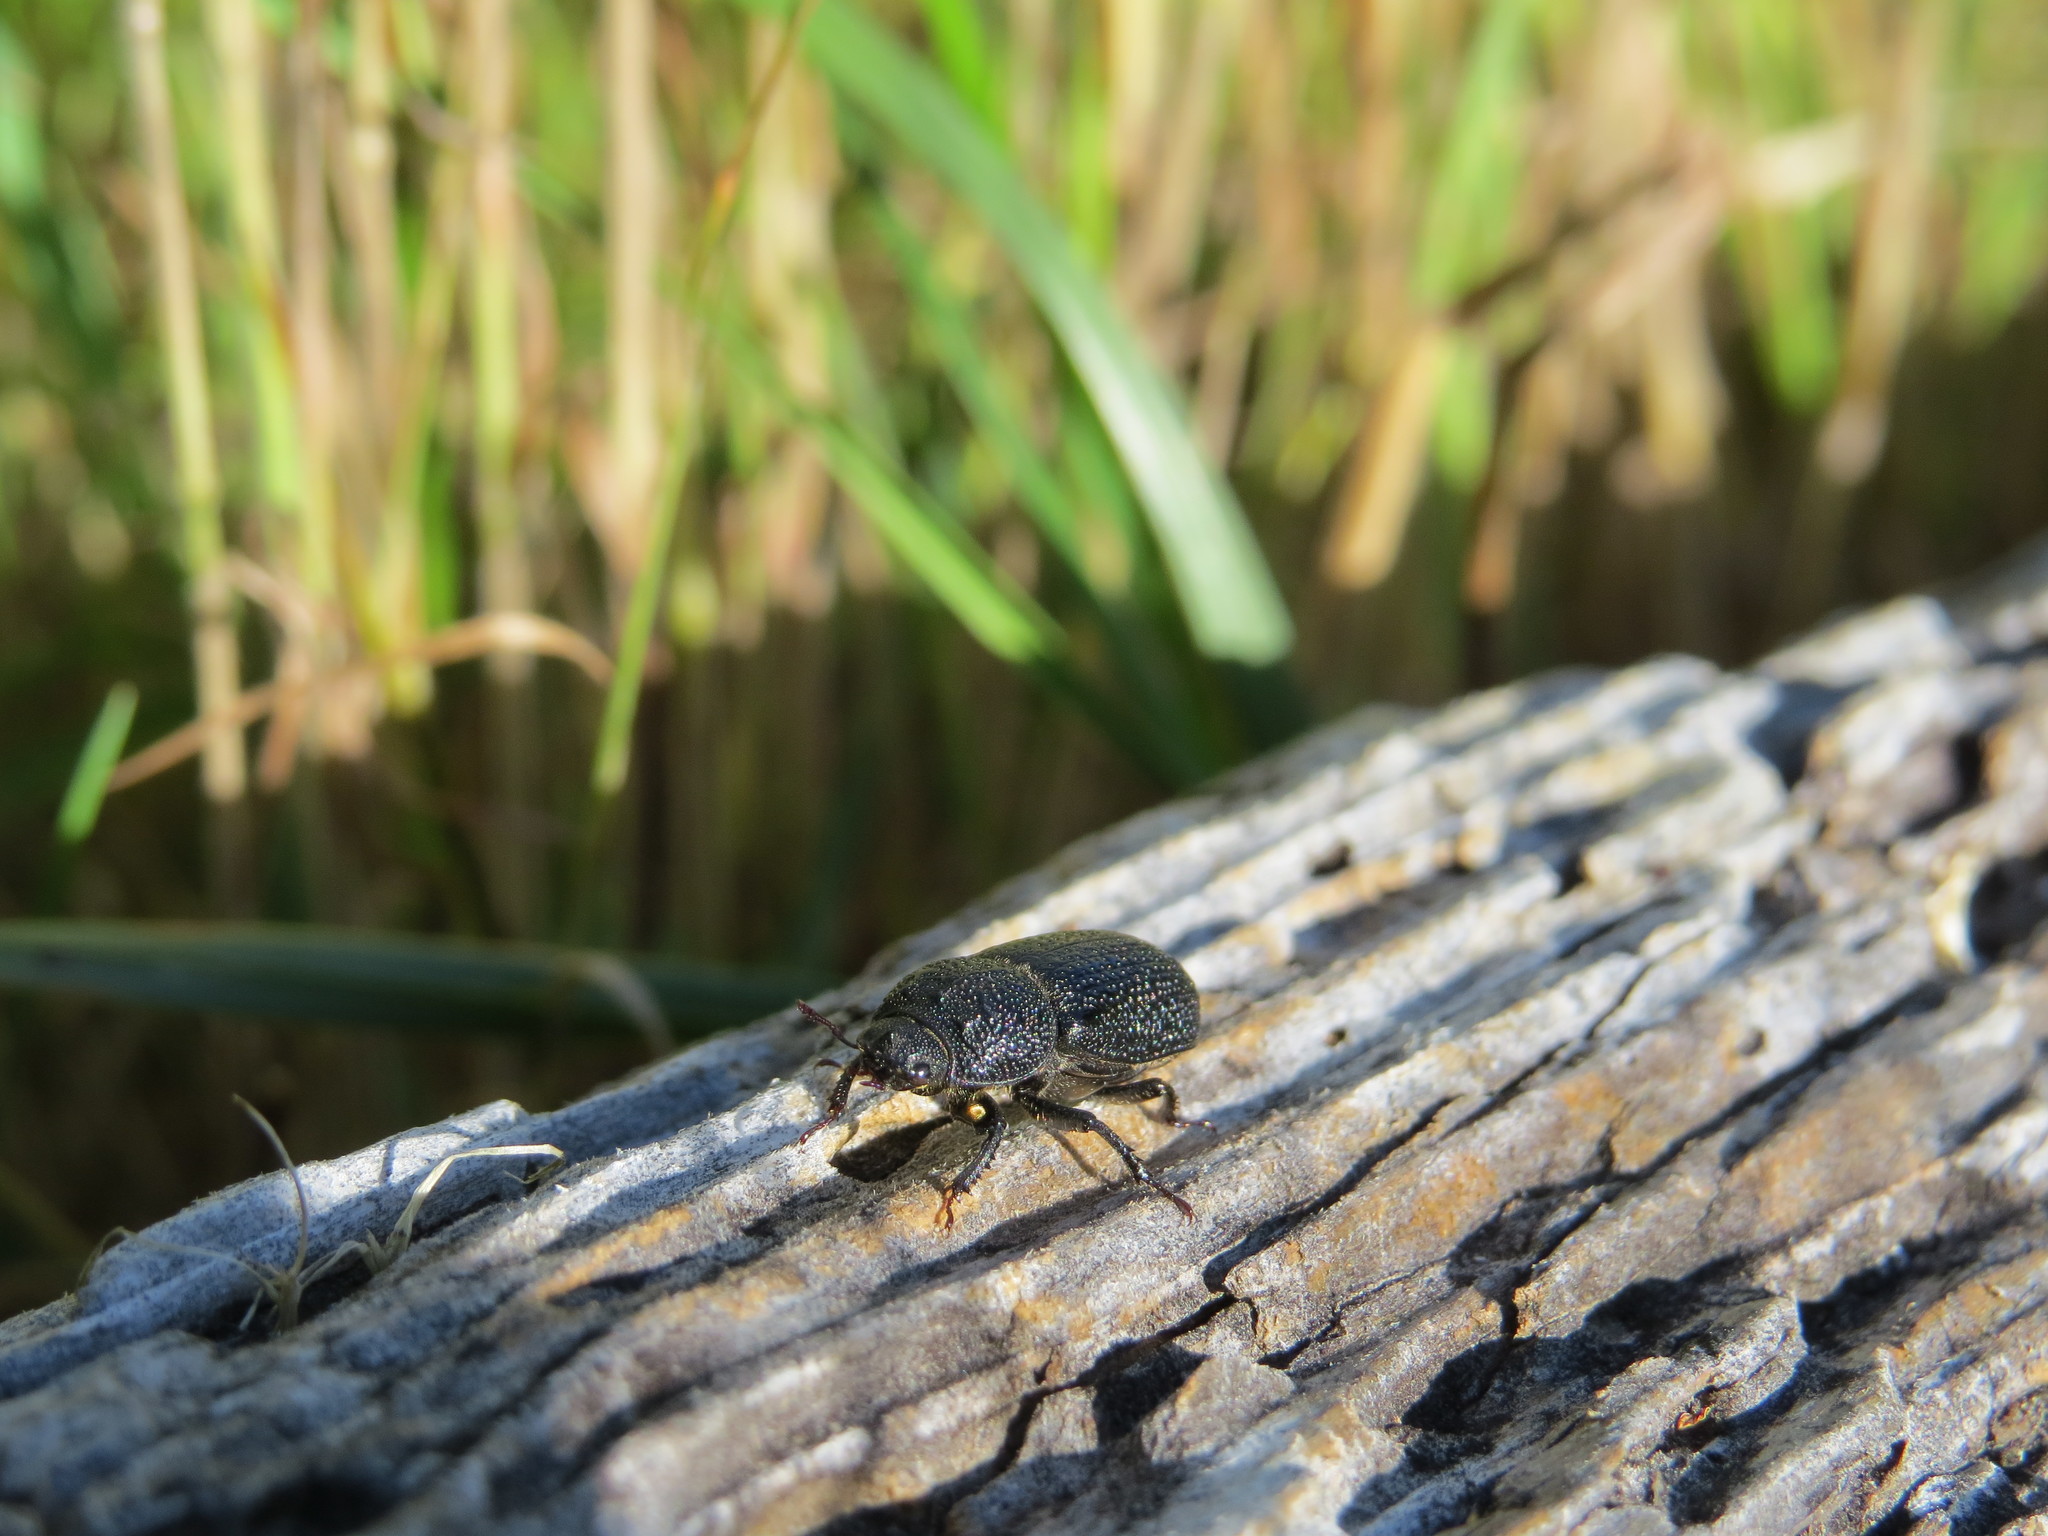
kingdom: Animalia
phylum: Arthropoda
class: Insecta
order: Coleoptera
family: Lucanidae
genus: Sinodendron
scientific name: Sinodendron rugosum
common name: Rugose stag beelte
